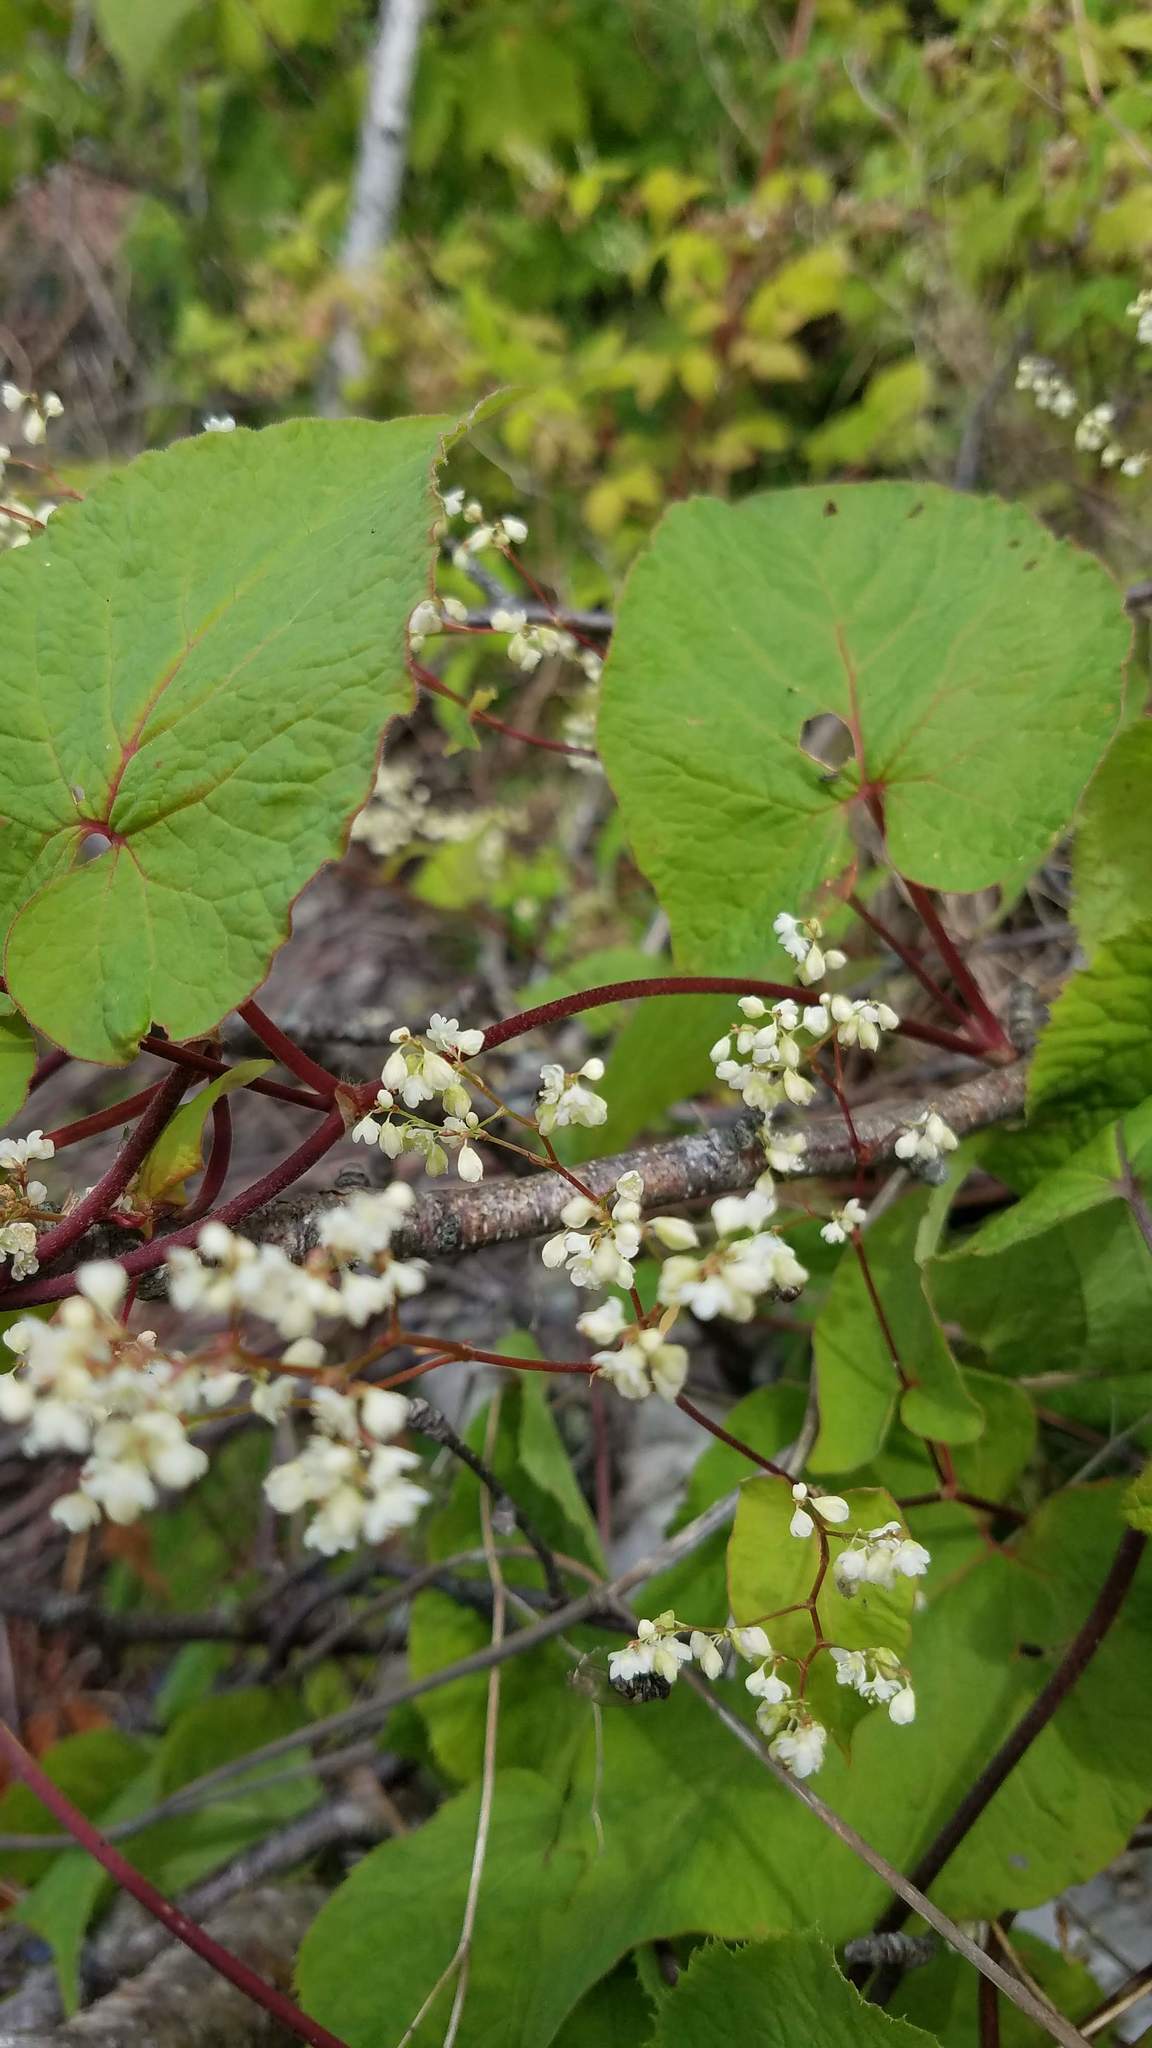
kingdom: Plantae
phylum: Tracheophyta
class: Magnoliopsida
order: Caryophyllales
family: Polygonaceae
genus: Parogonum
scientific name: Parogonum ciliinode
